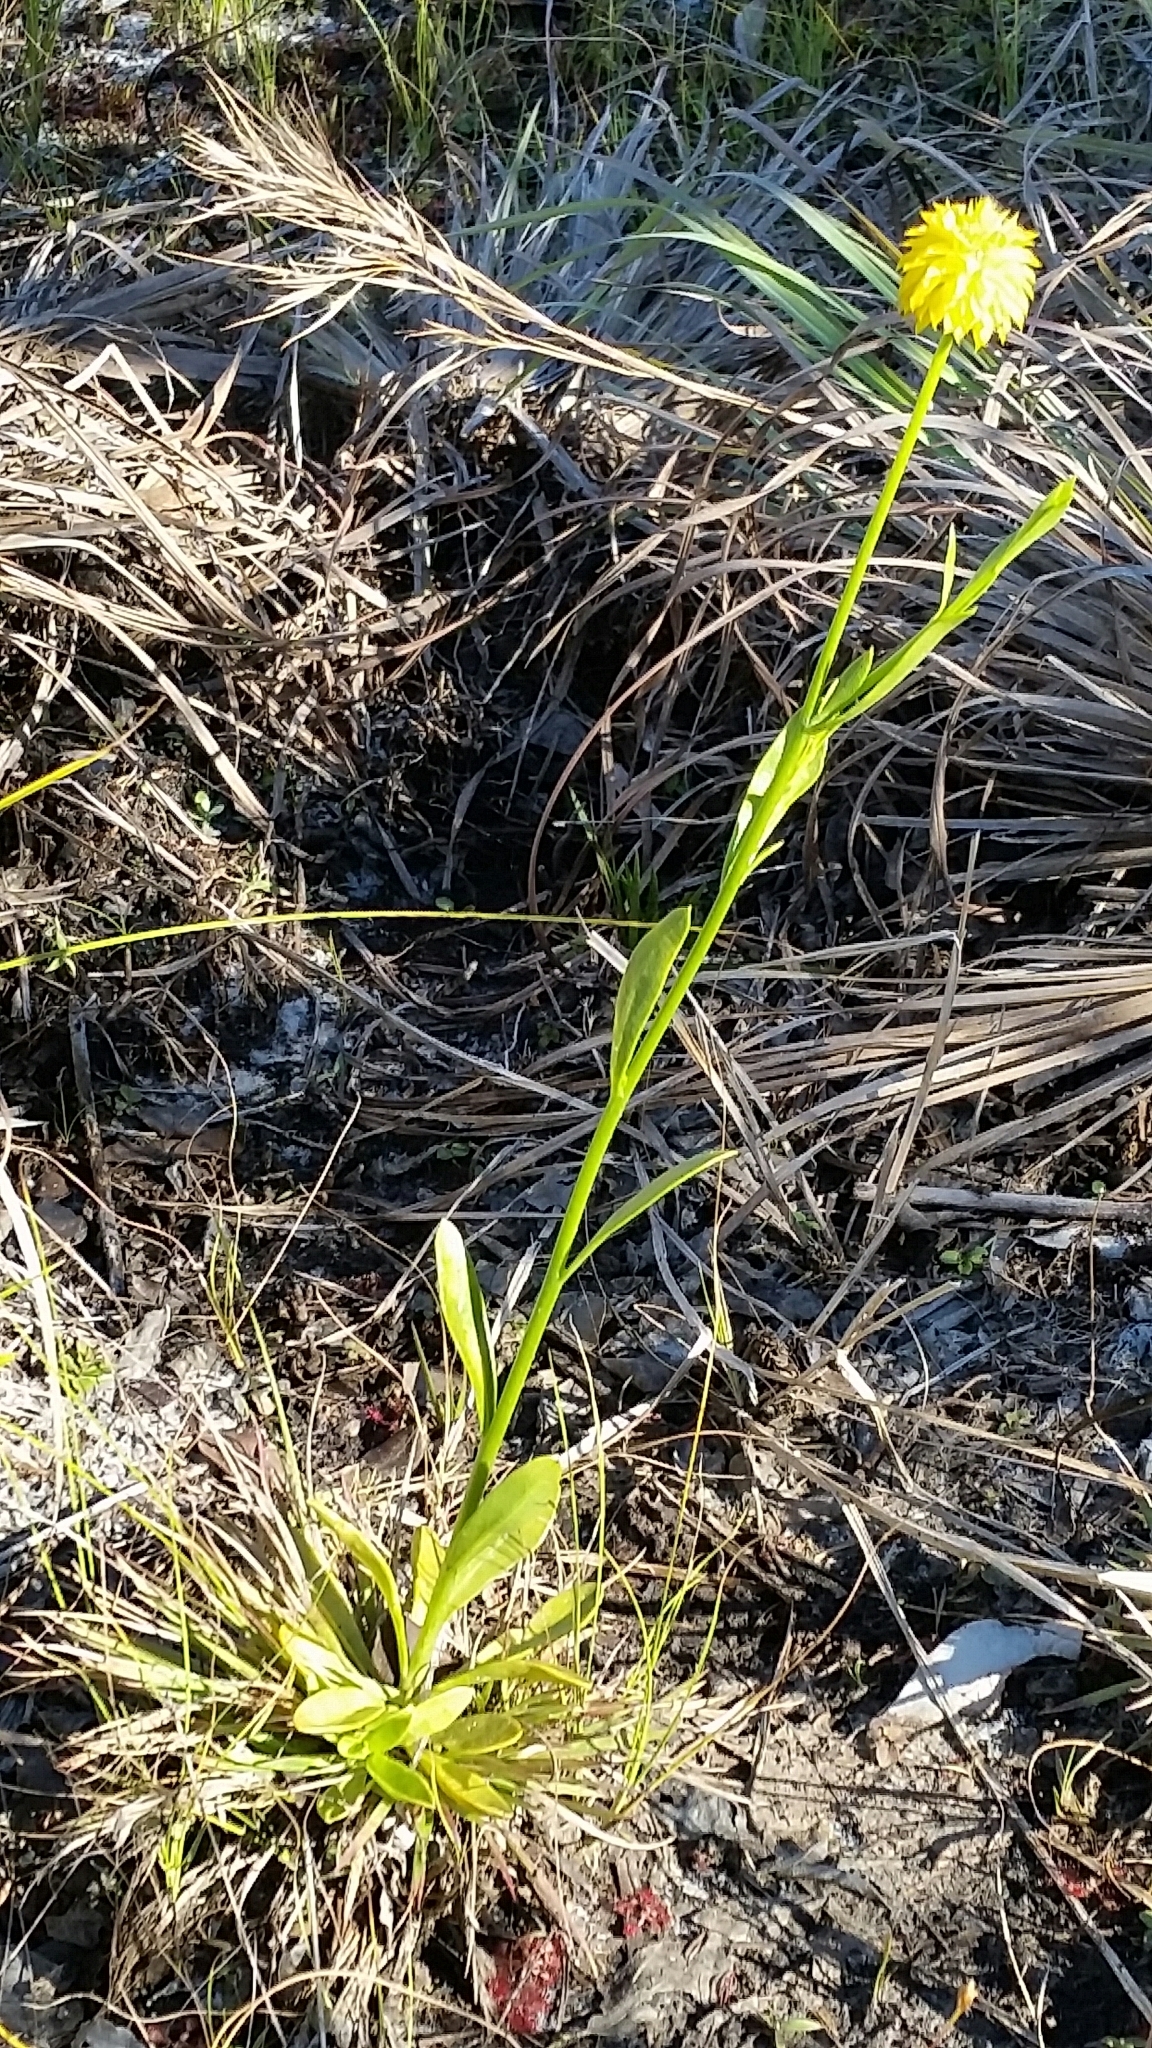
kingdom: Plantae
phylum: Tracheophyta
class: Magnoliopsida
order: Fabales
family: Polygalaceae
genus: Polygala
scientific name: Polygala rugelii
